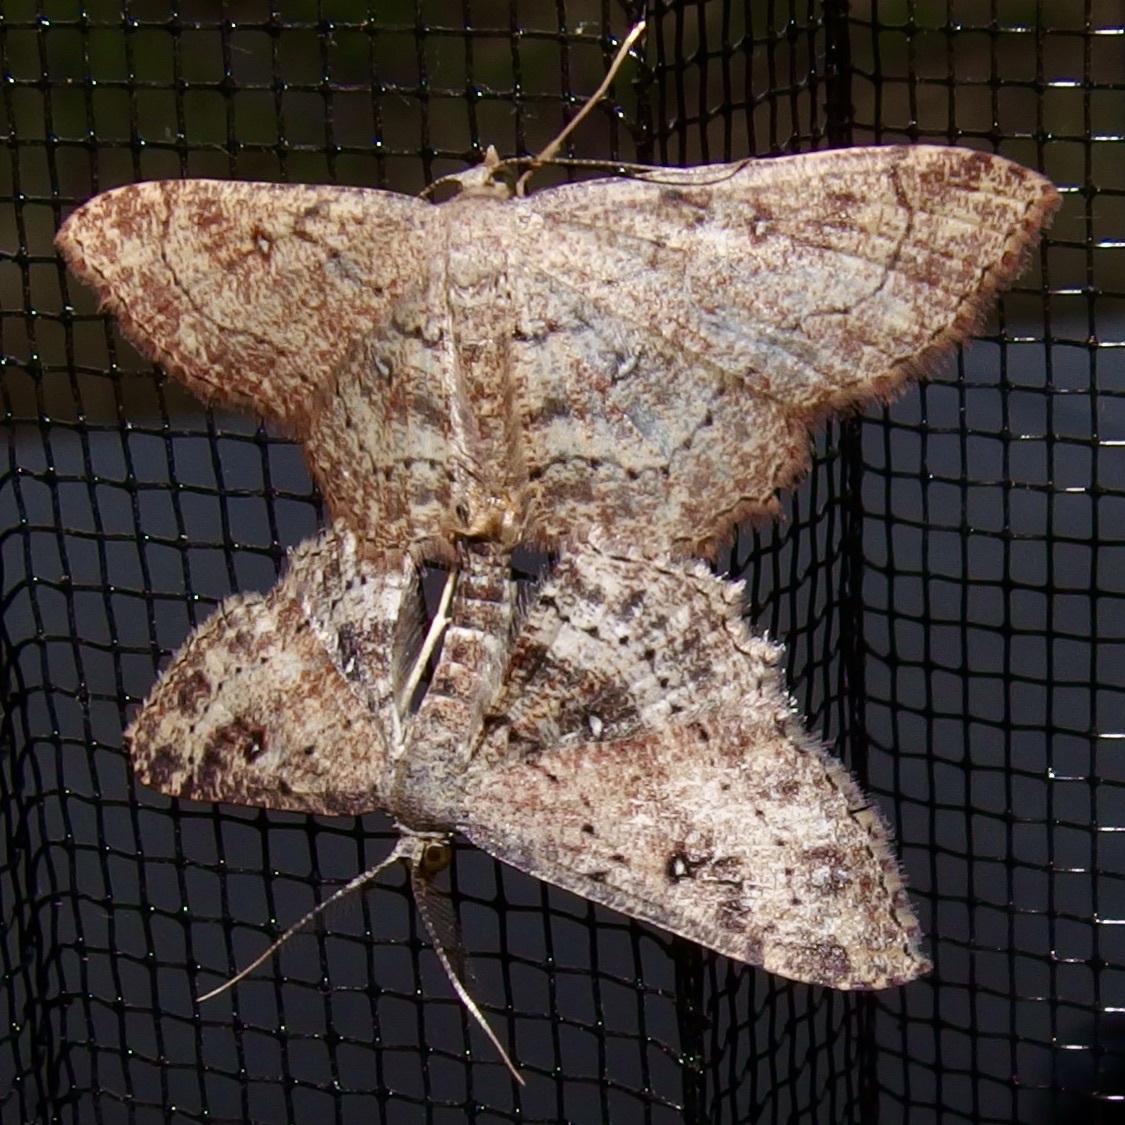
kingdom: Animalia
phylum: Arthropoda
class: Insecta
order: Lepidoptera
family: Geometridae
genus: Cyclophora
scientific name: Cyclophora nanaria
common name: Cankerworm
